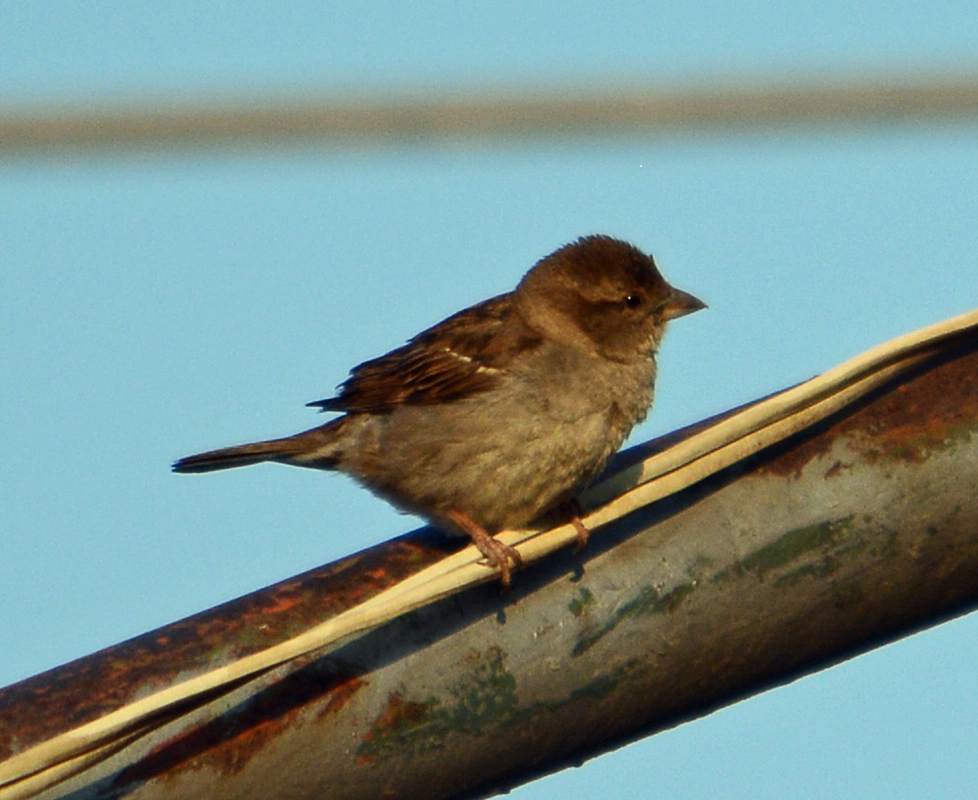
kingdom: Animalia
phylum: Chordata
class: Aves
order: Passeriformes
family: Passeridae
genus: Passer
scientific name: Passer domesticus
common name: House sparrow
